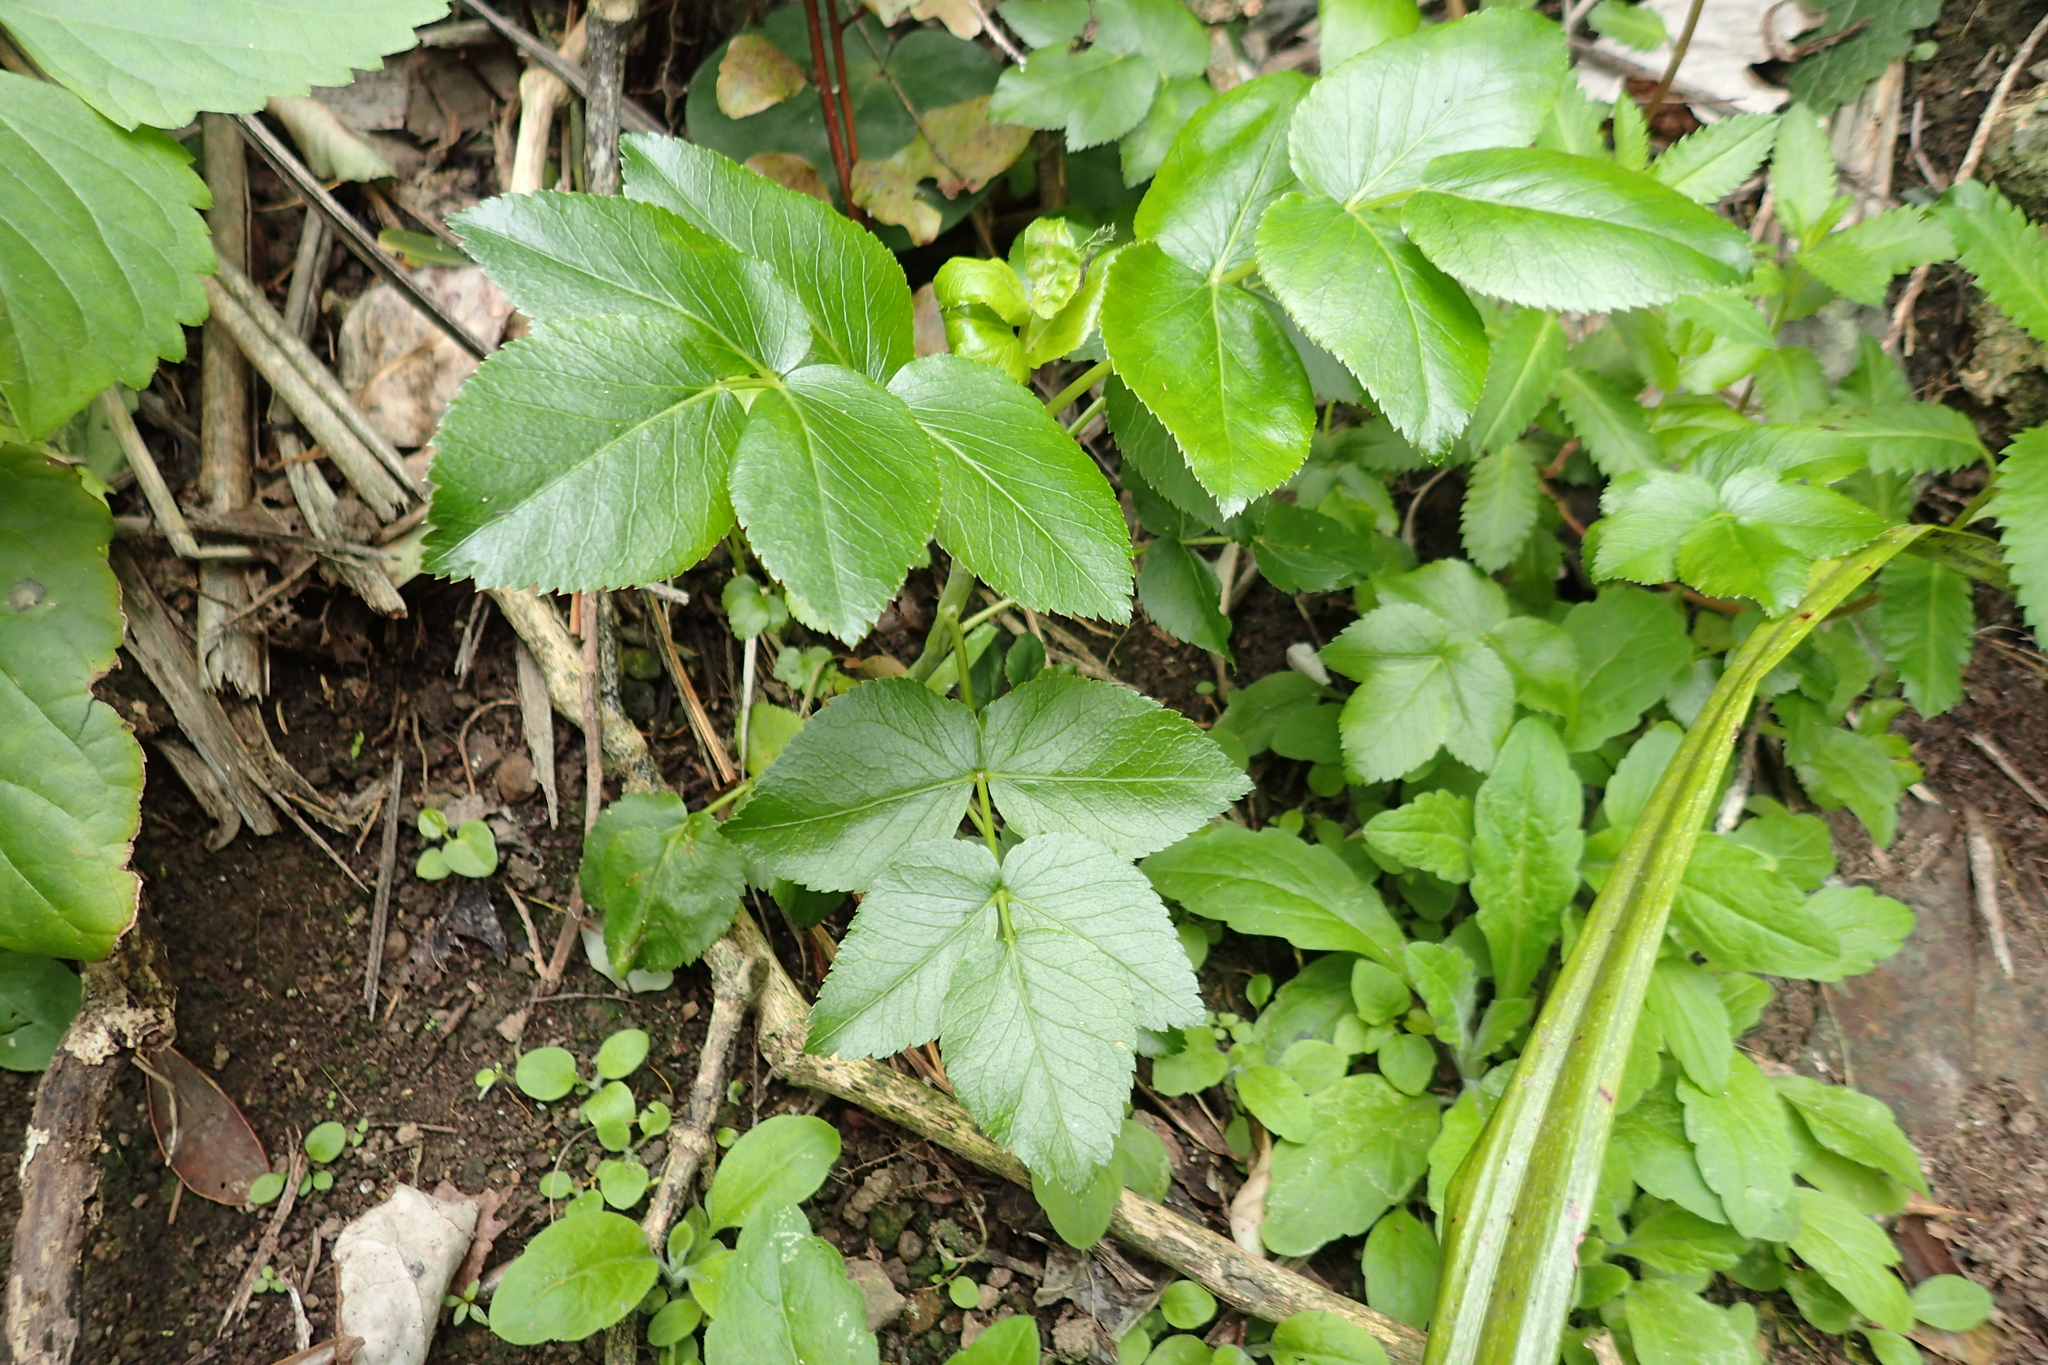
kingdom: Plantae
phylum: Tracheophyta
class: Magnoliopsida
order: Apiales
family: Apiaceae
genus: Scandia
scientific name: Scandia rosifolia
